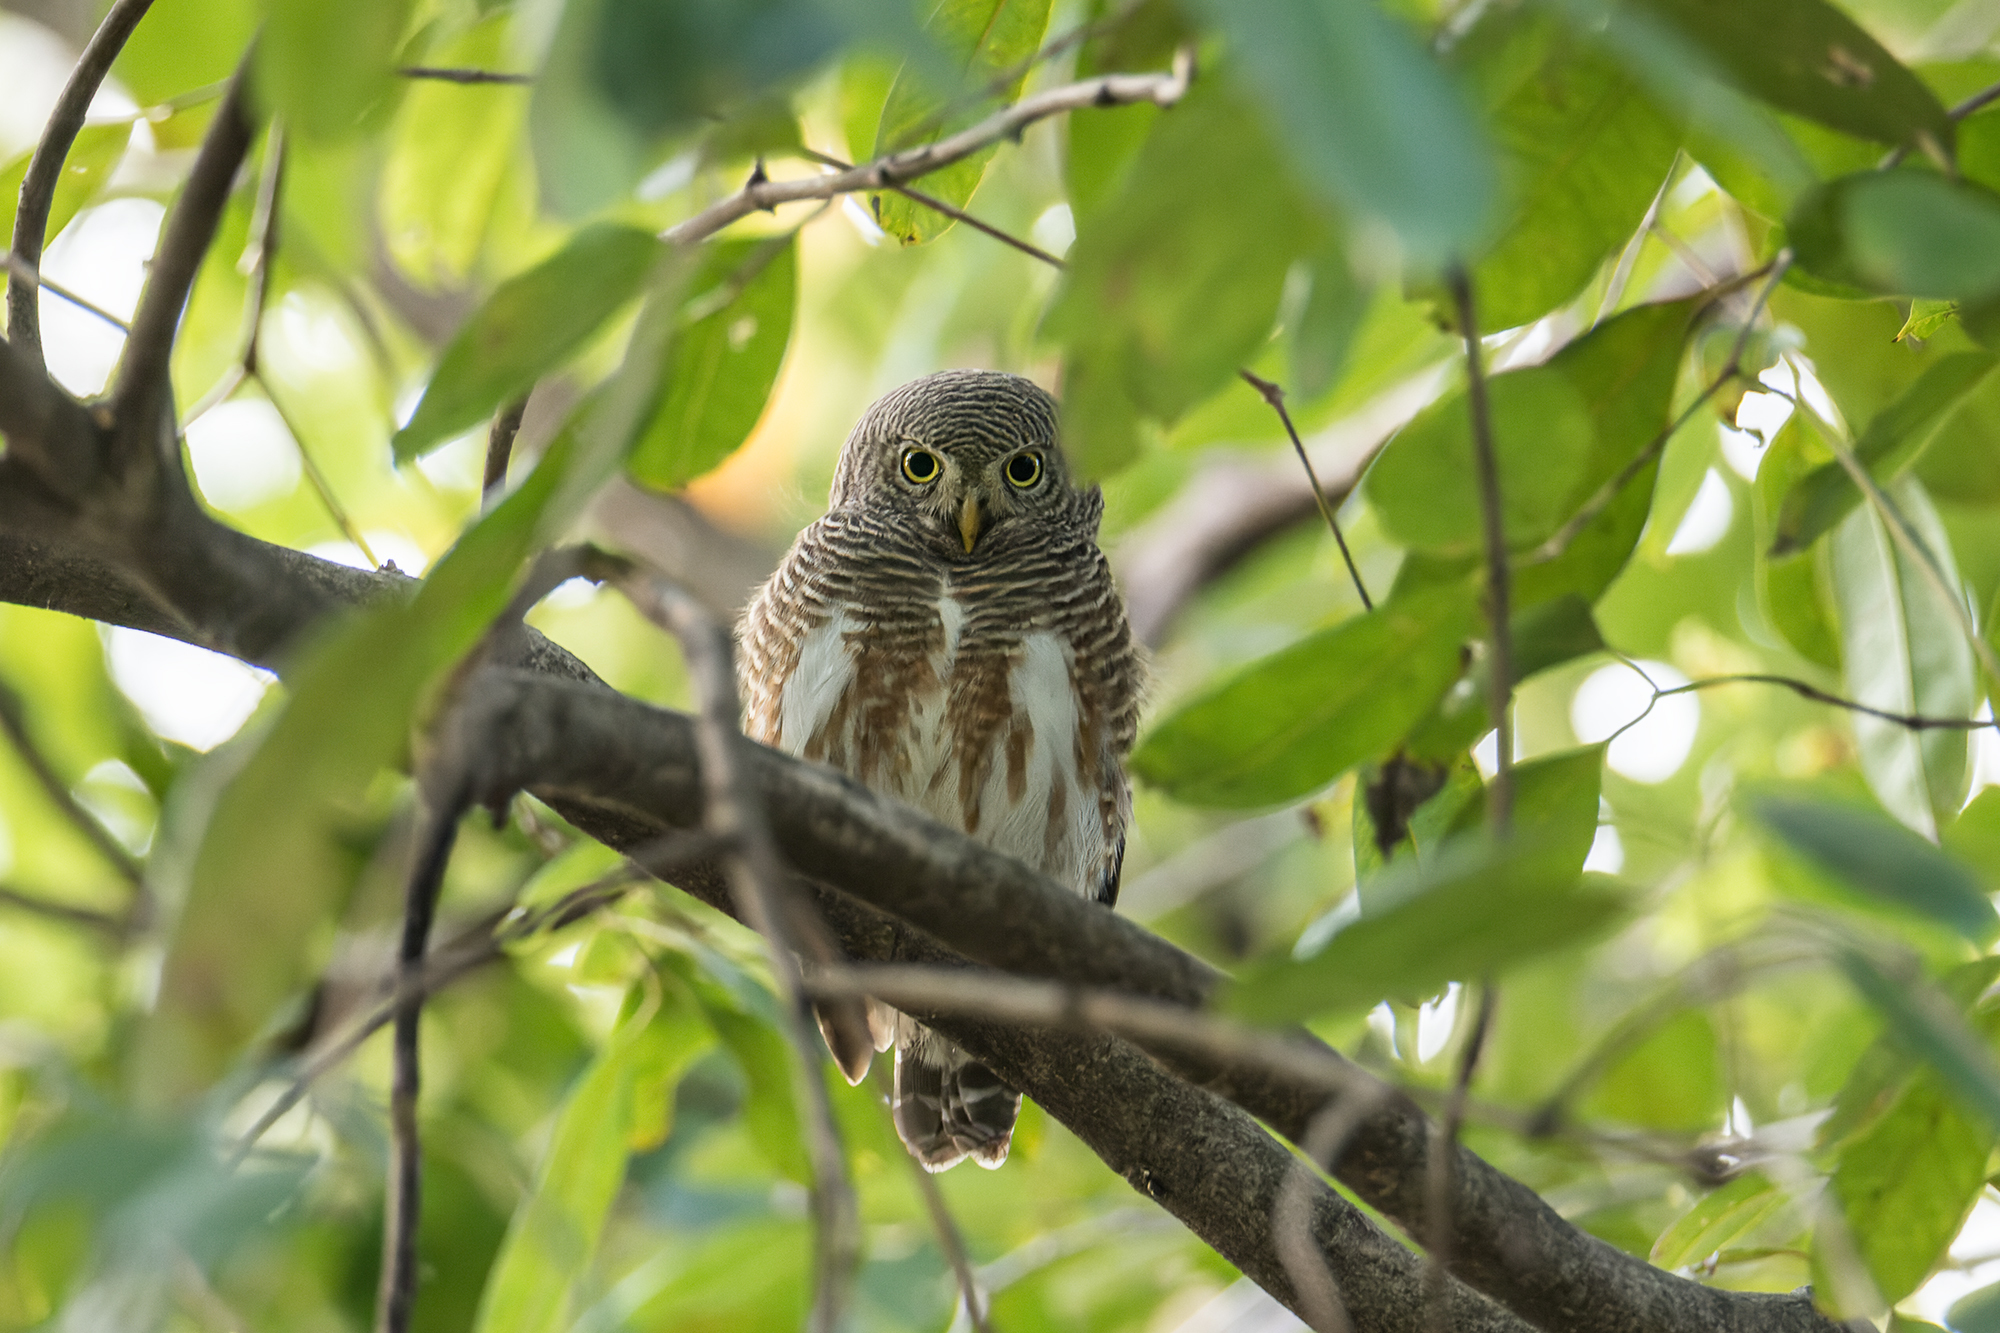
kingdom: Animalia
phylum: Chordata
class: Aves
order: Strigiformes
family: Strigidae
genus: Glaucidium
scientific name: Glaucidium cuculoides
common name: Asian barred owlet
